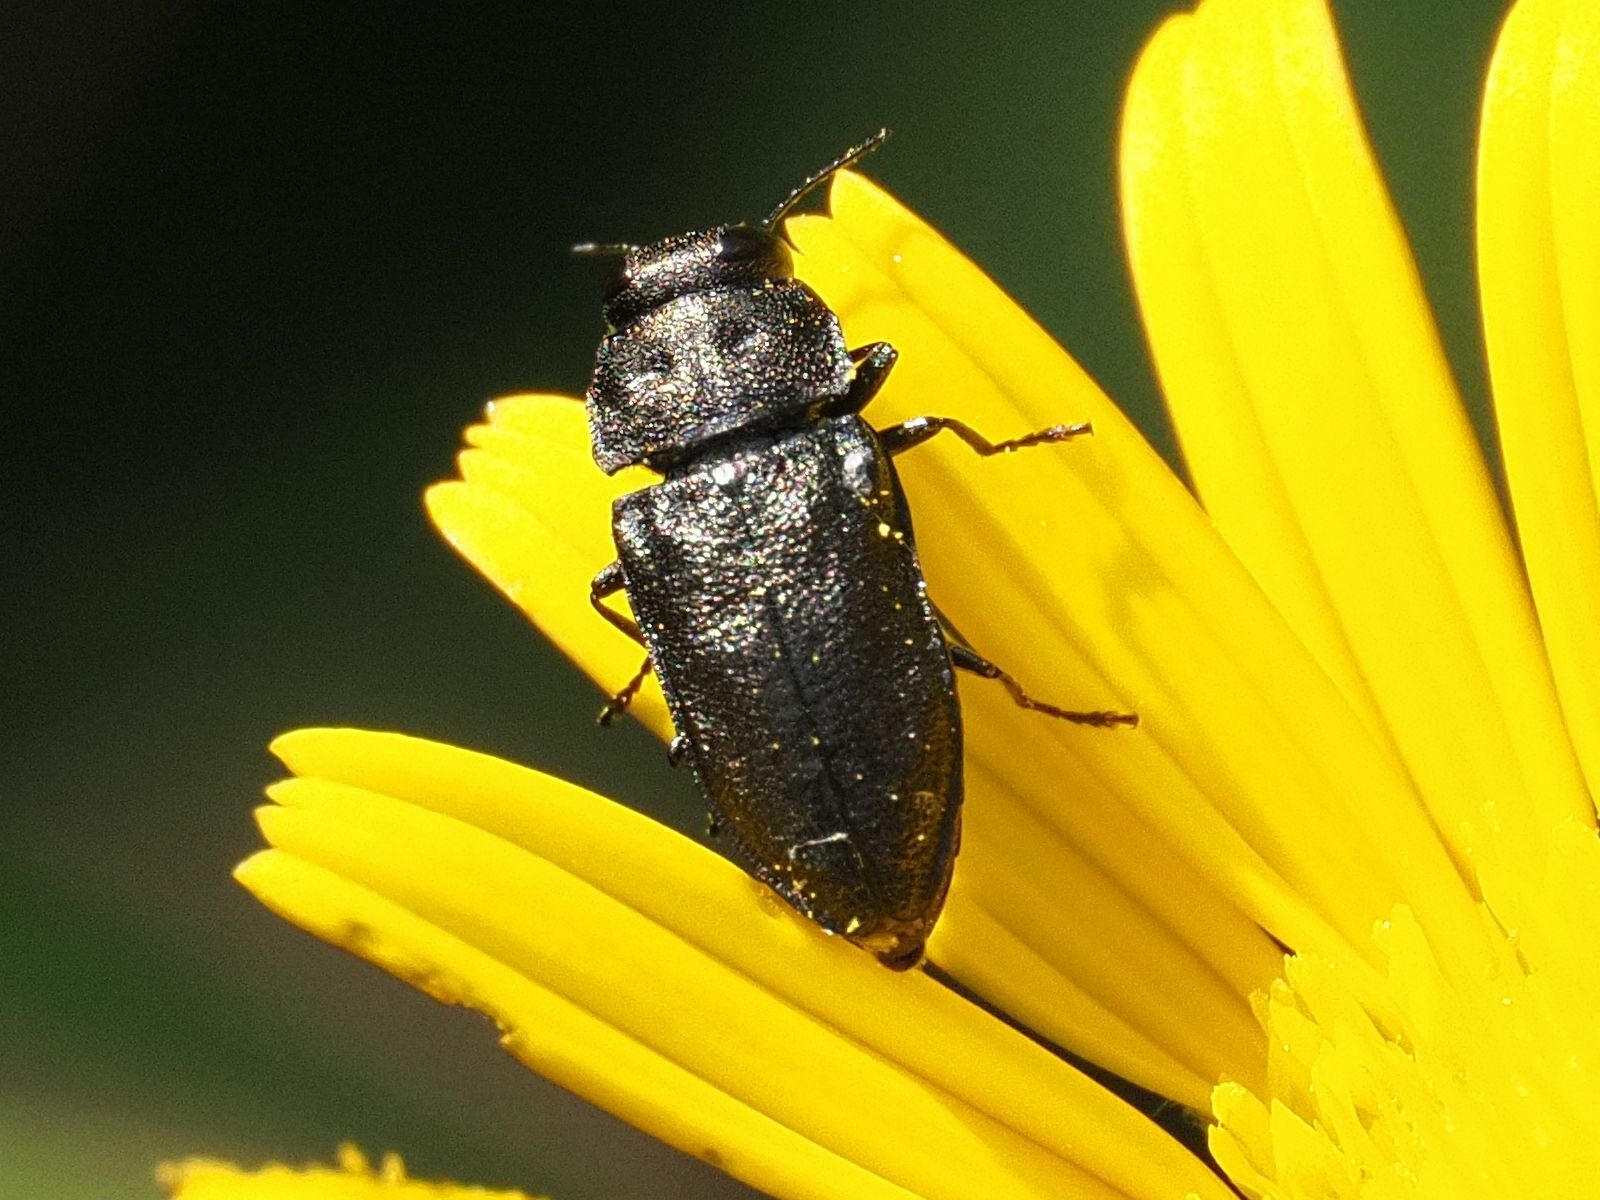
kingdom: Animalia
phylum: Arthropoda
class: Insecta
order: Coleoptera
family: Buprestidae
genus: Anthaxia
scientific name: Anthaxia quadripunctata
